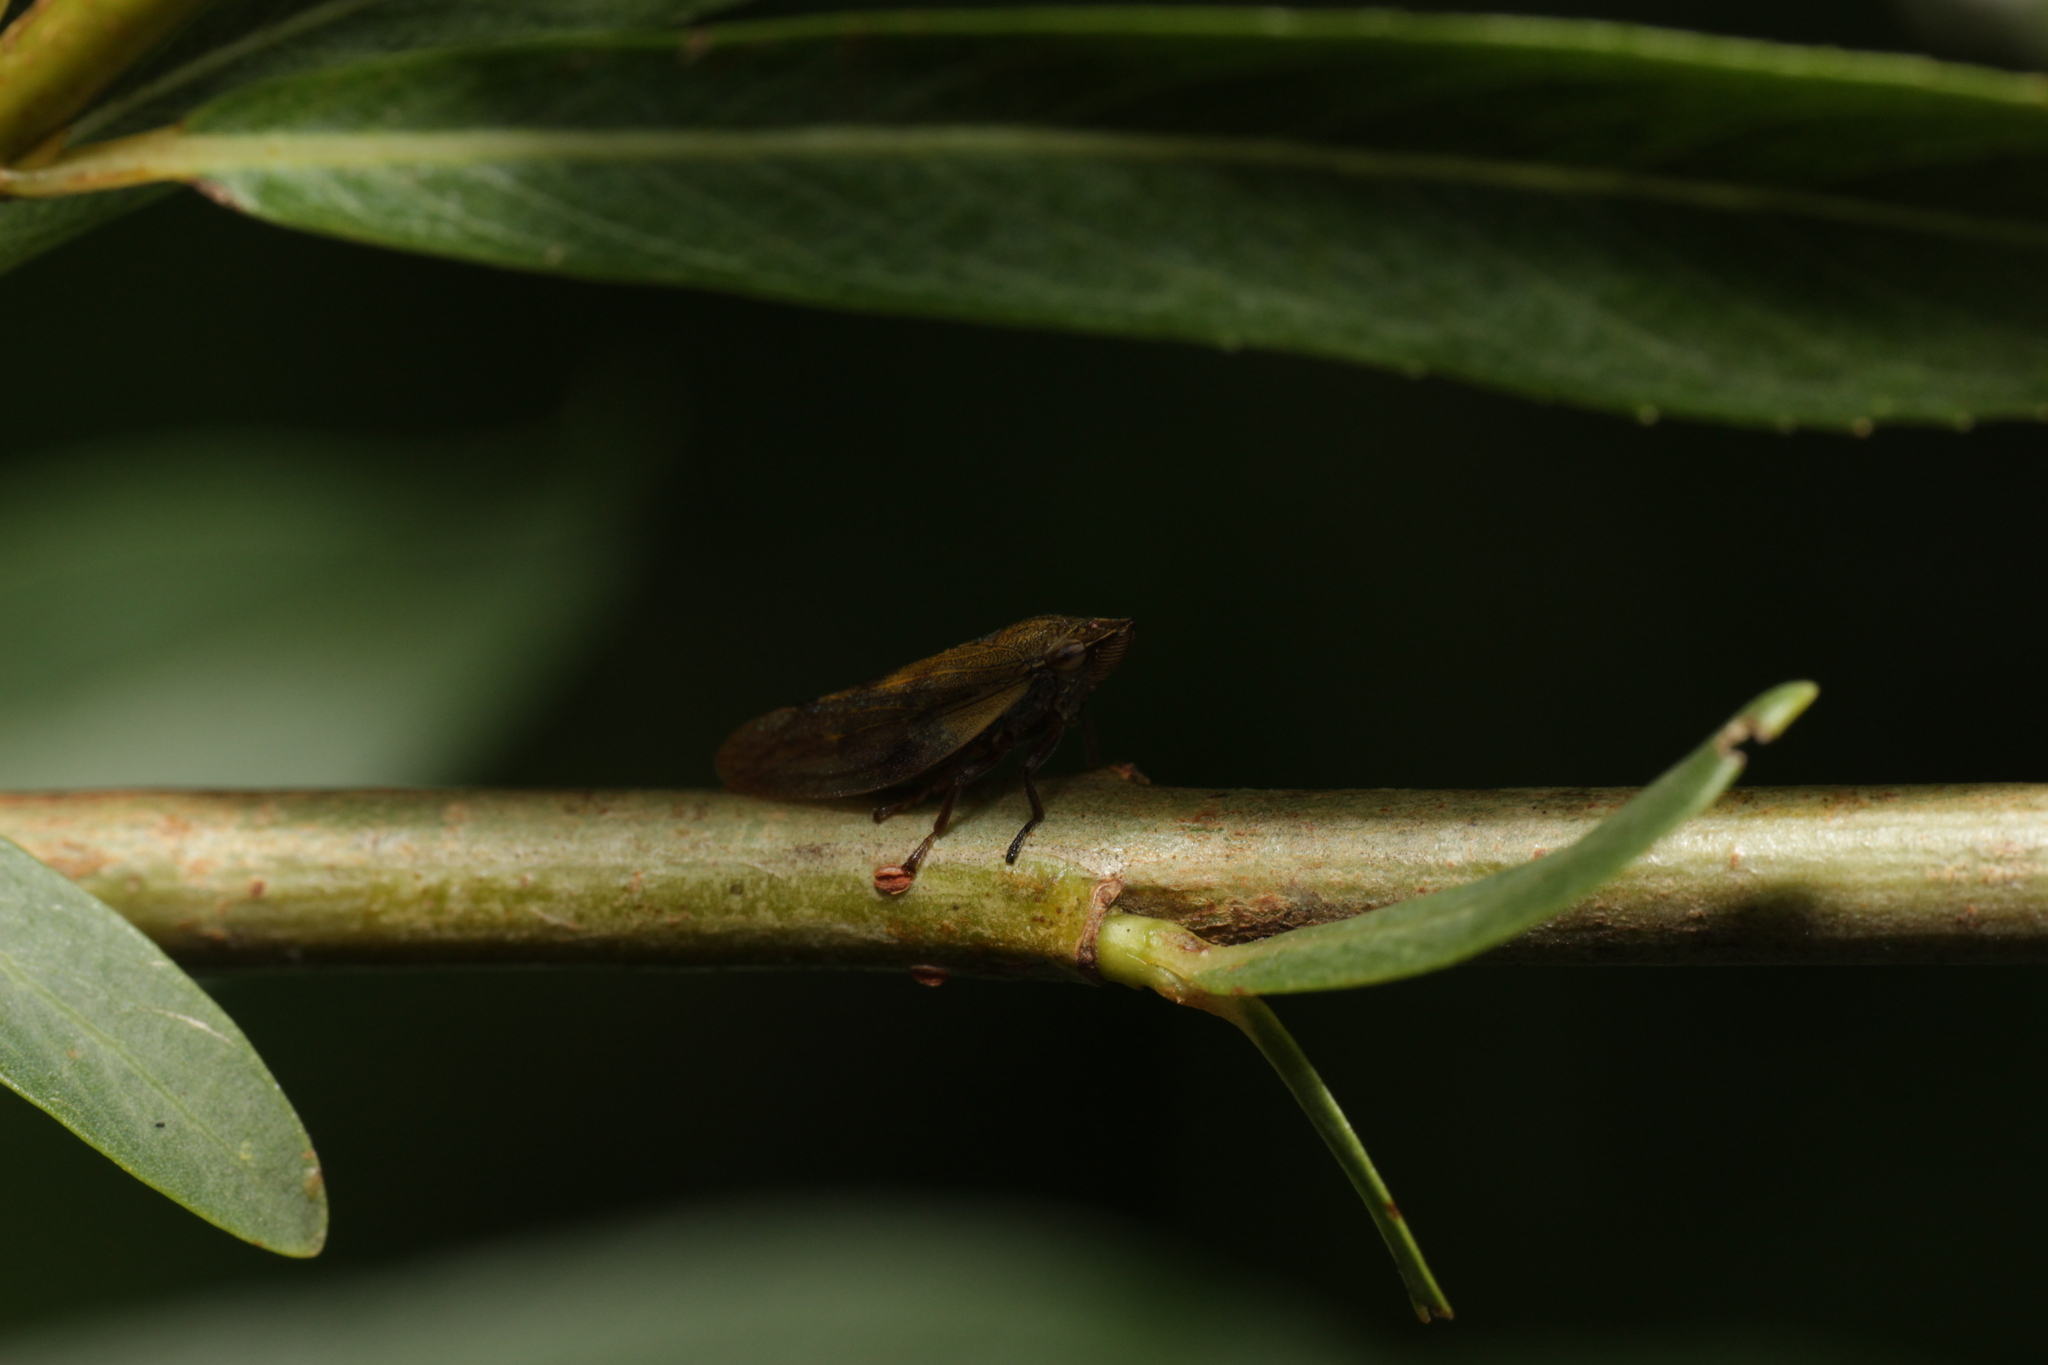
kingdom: Animalia
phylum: Arthropoda
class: Insecta
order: Hemiptera
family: Aphrophoridae
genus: Omalophora
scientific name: Omalophora pectoralis
